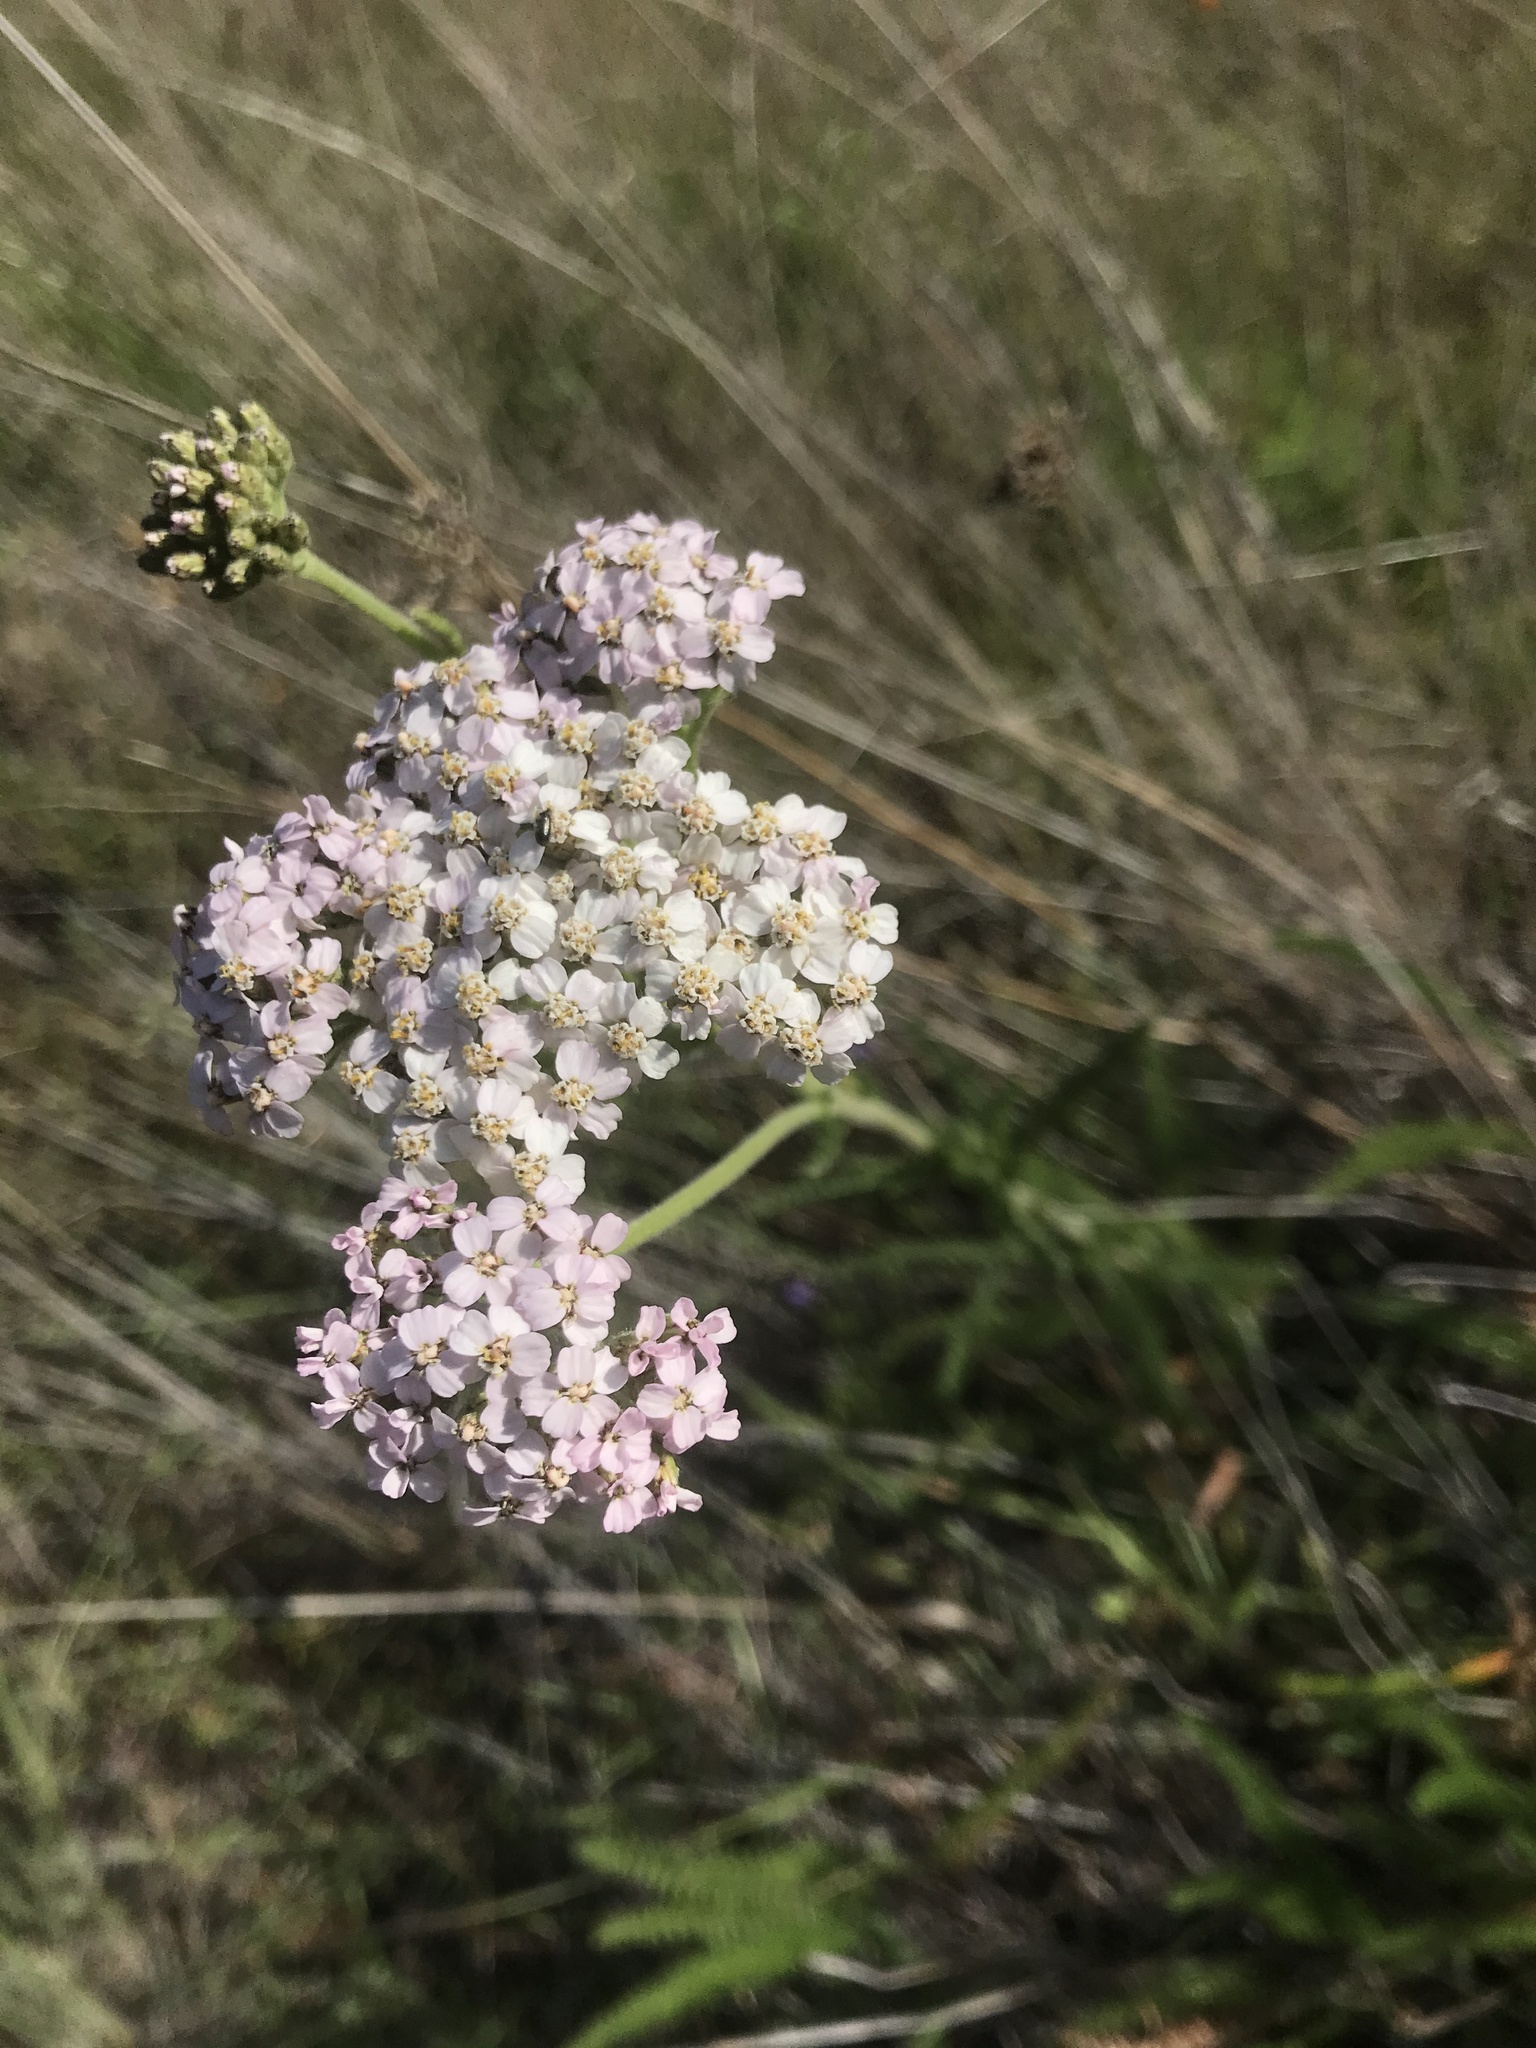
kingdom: Plantae
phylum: Tracheophyta
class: Magnoliopsida
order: Asterales
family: Asteraceae
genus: Achillea
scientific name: Achillea millefolium
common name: Yarrow
